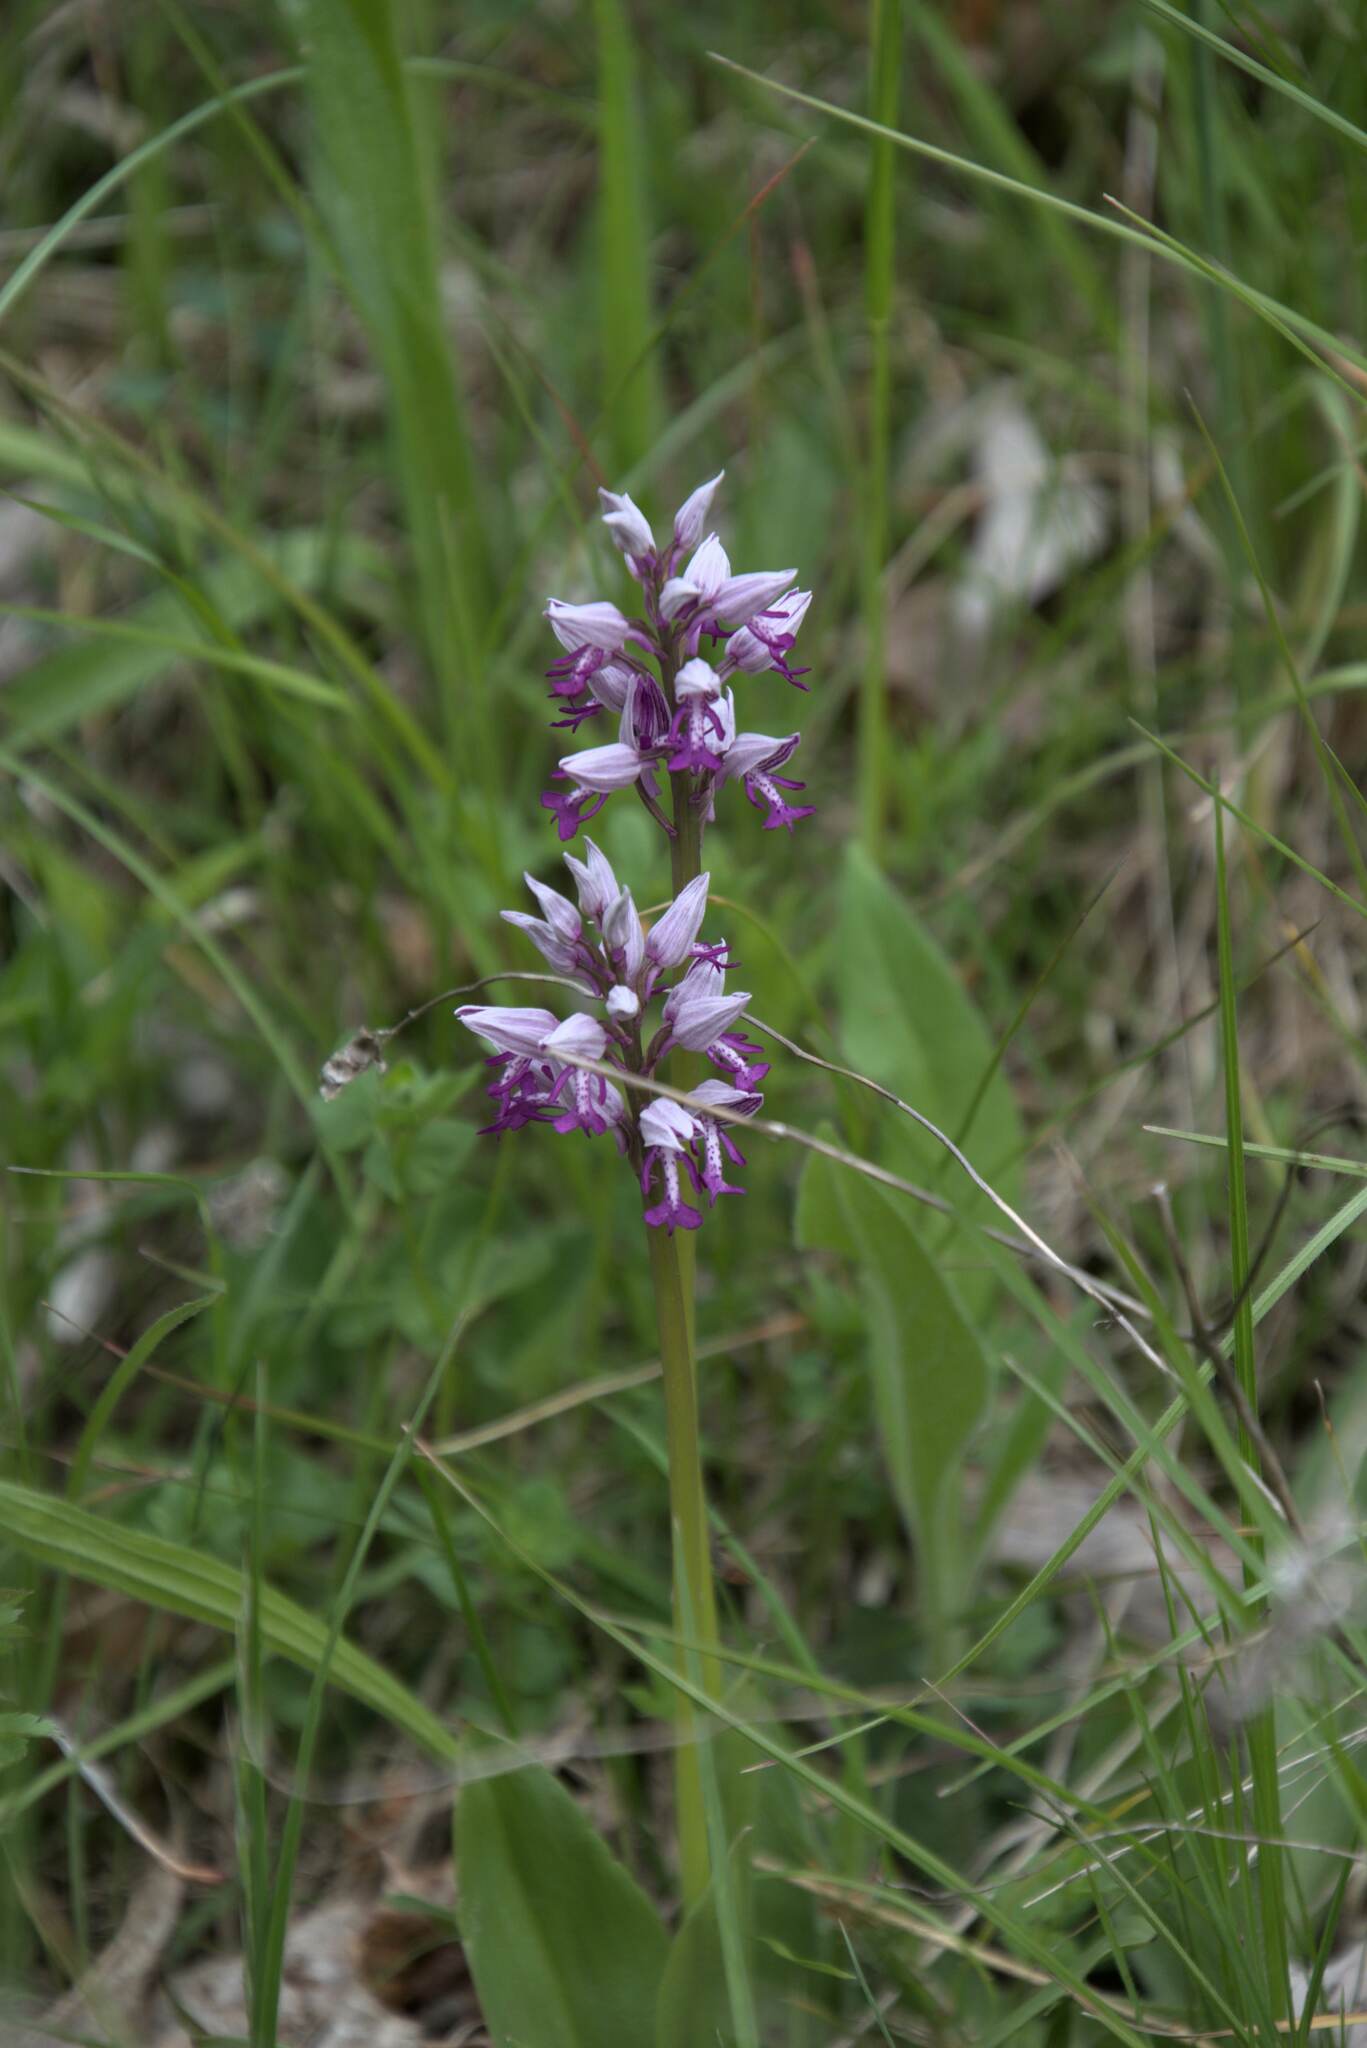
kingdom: Plantae
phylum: Tracheophyta
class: Liliopsida
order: Asparagales
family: Orchidaceae
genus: Orchis
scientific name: Orchis militaris
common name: Military orchid
